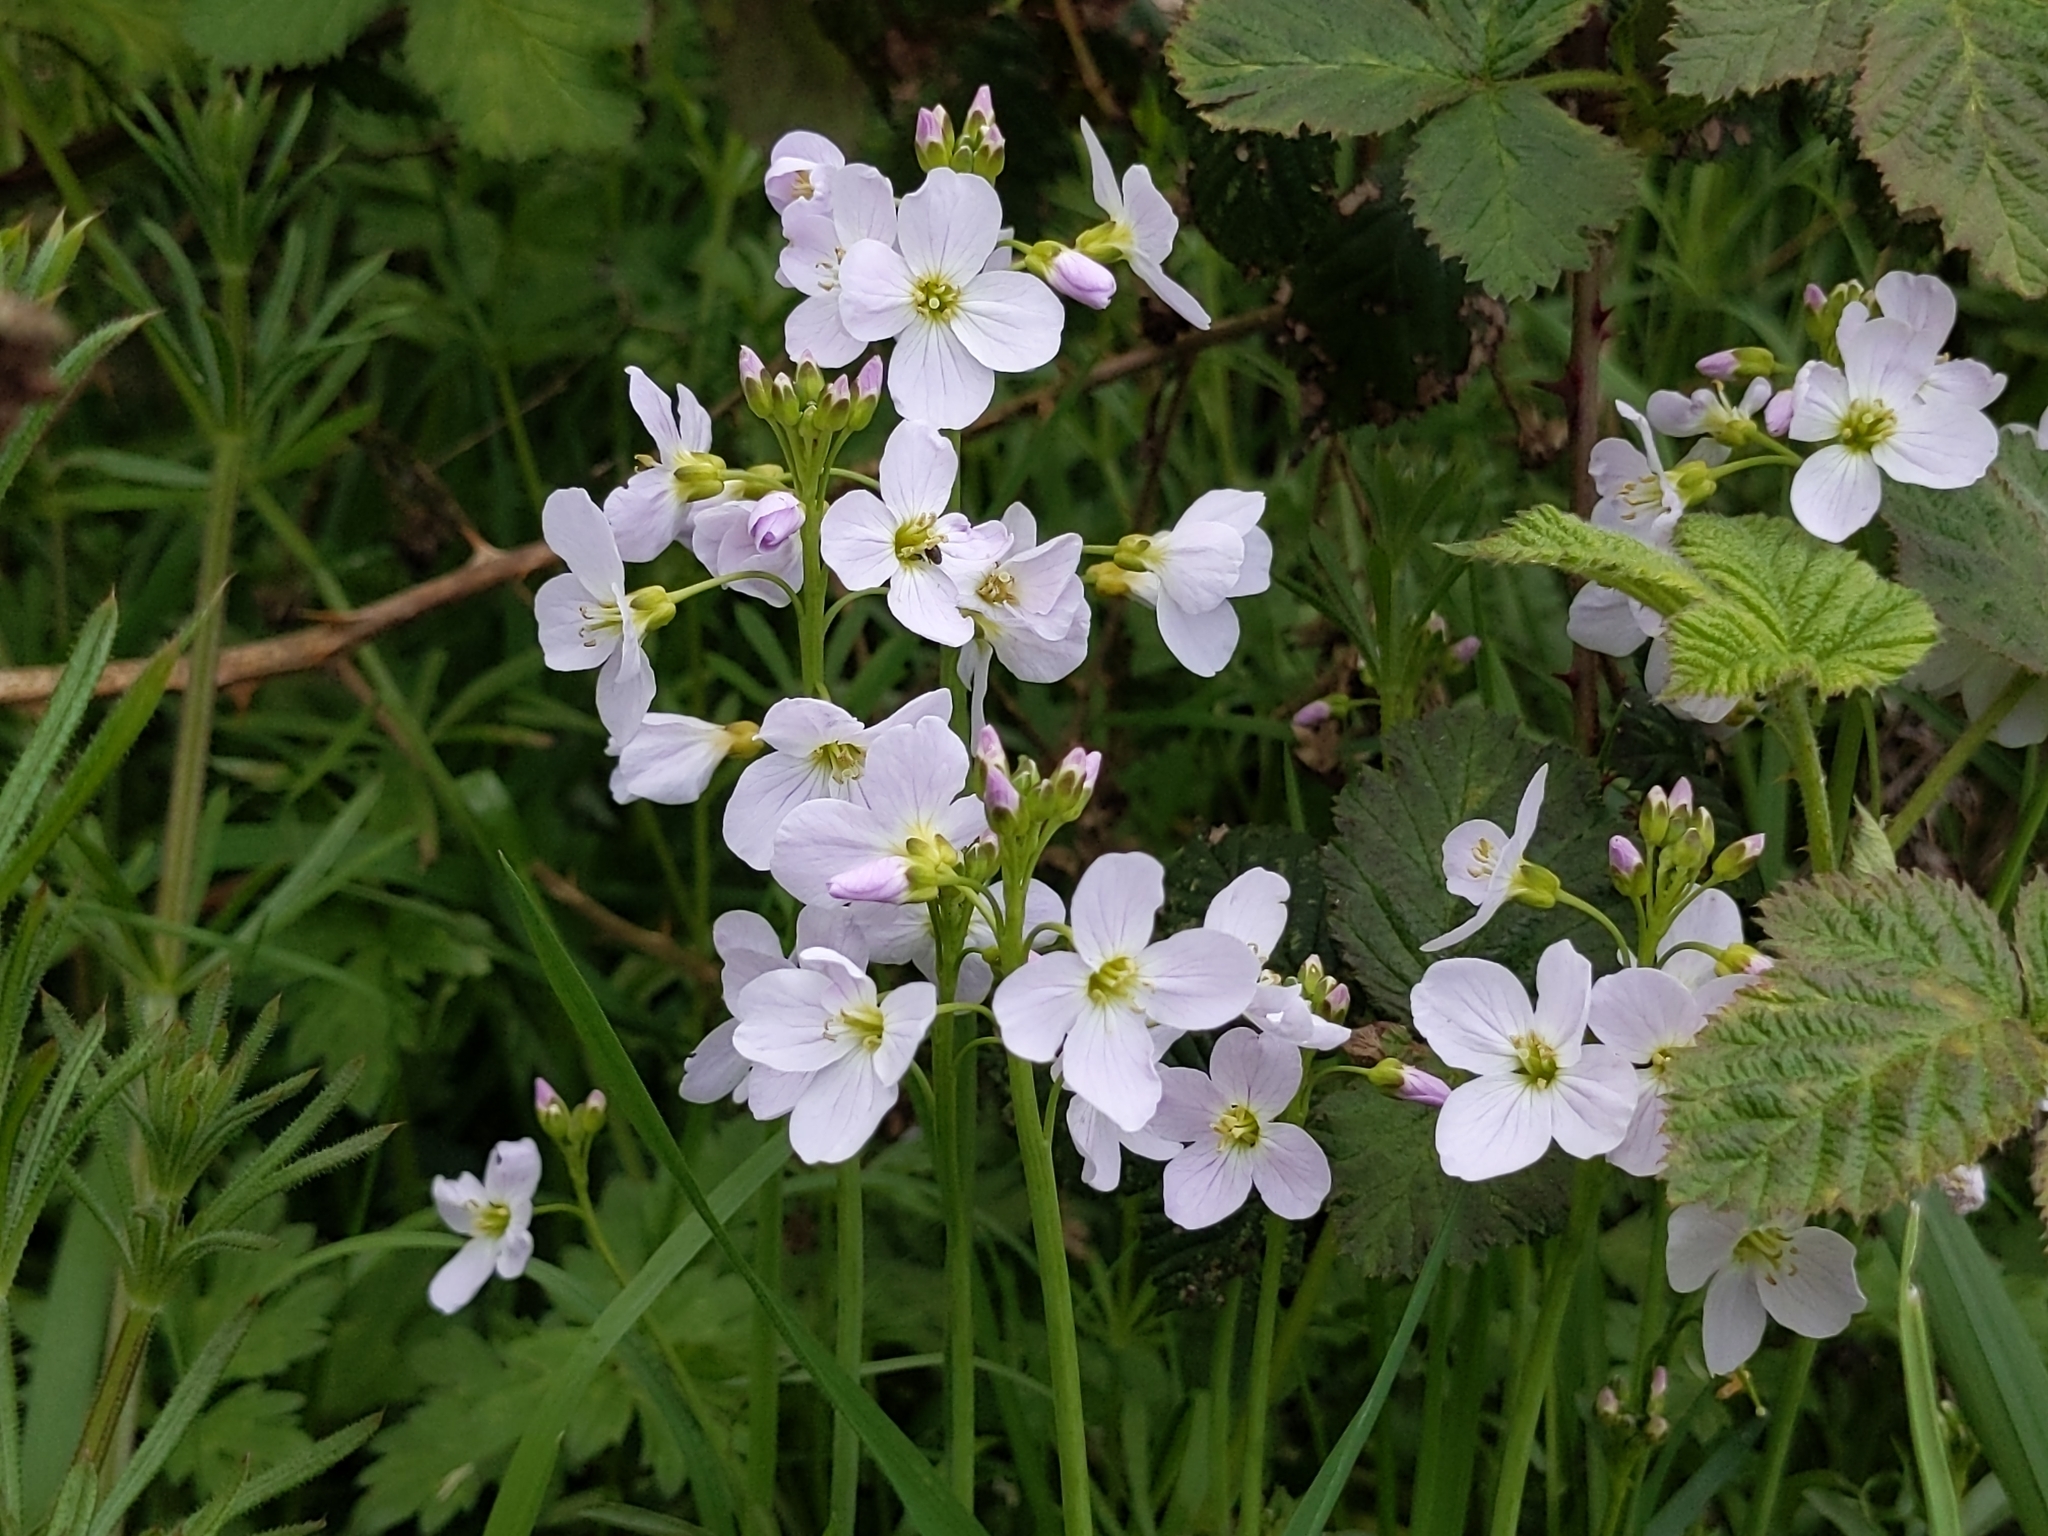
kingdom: Plantae
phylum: Tracheophyta
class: Magnoliopsida
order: Brassicales
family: Brassicaceae
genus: Cardamine
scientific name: Cardamine pratensis
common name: Cuckoo flower
